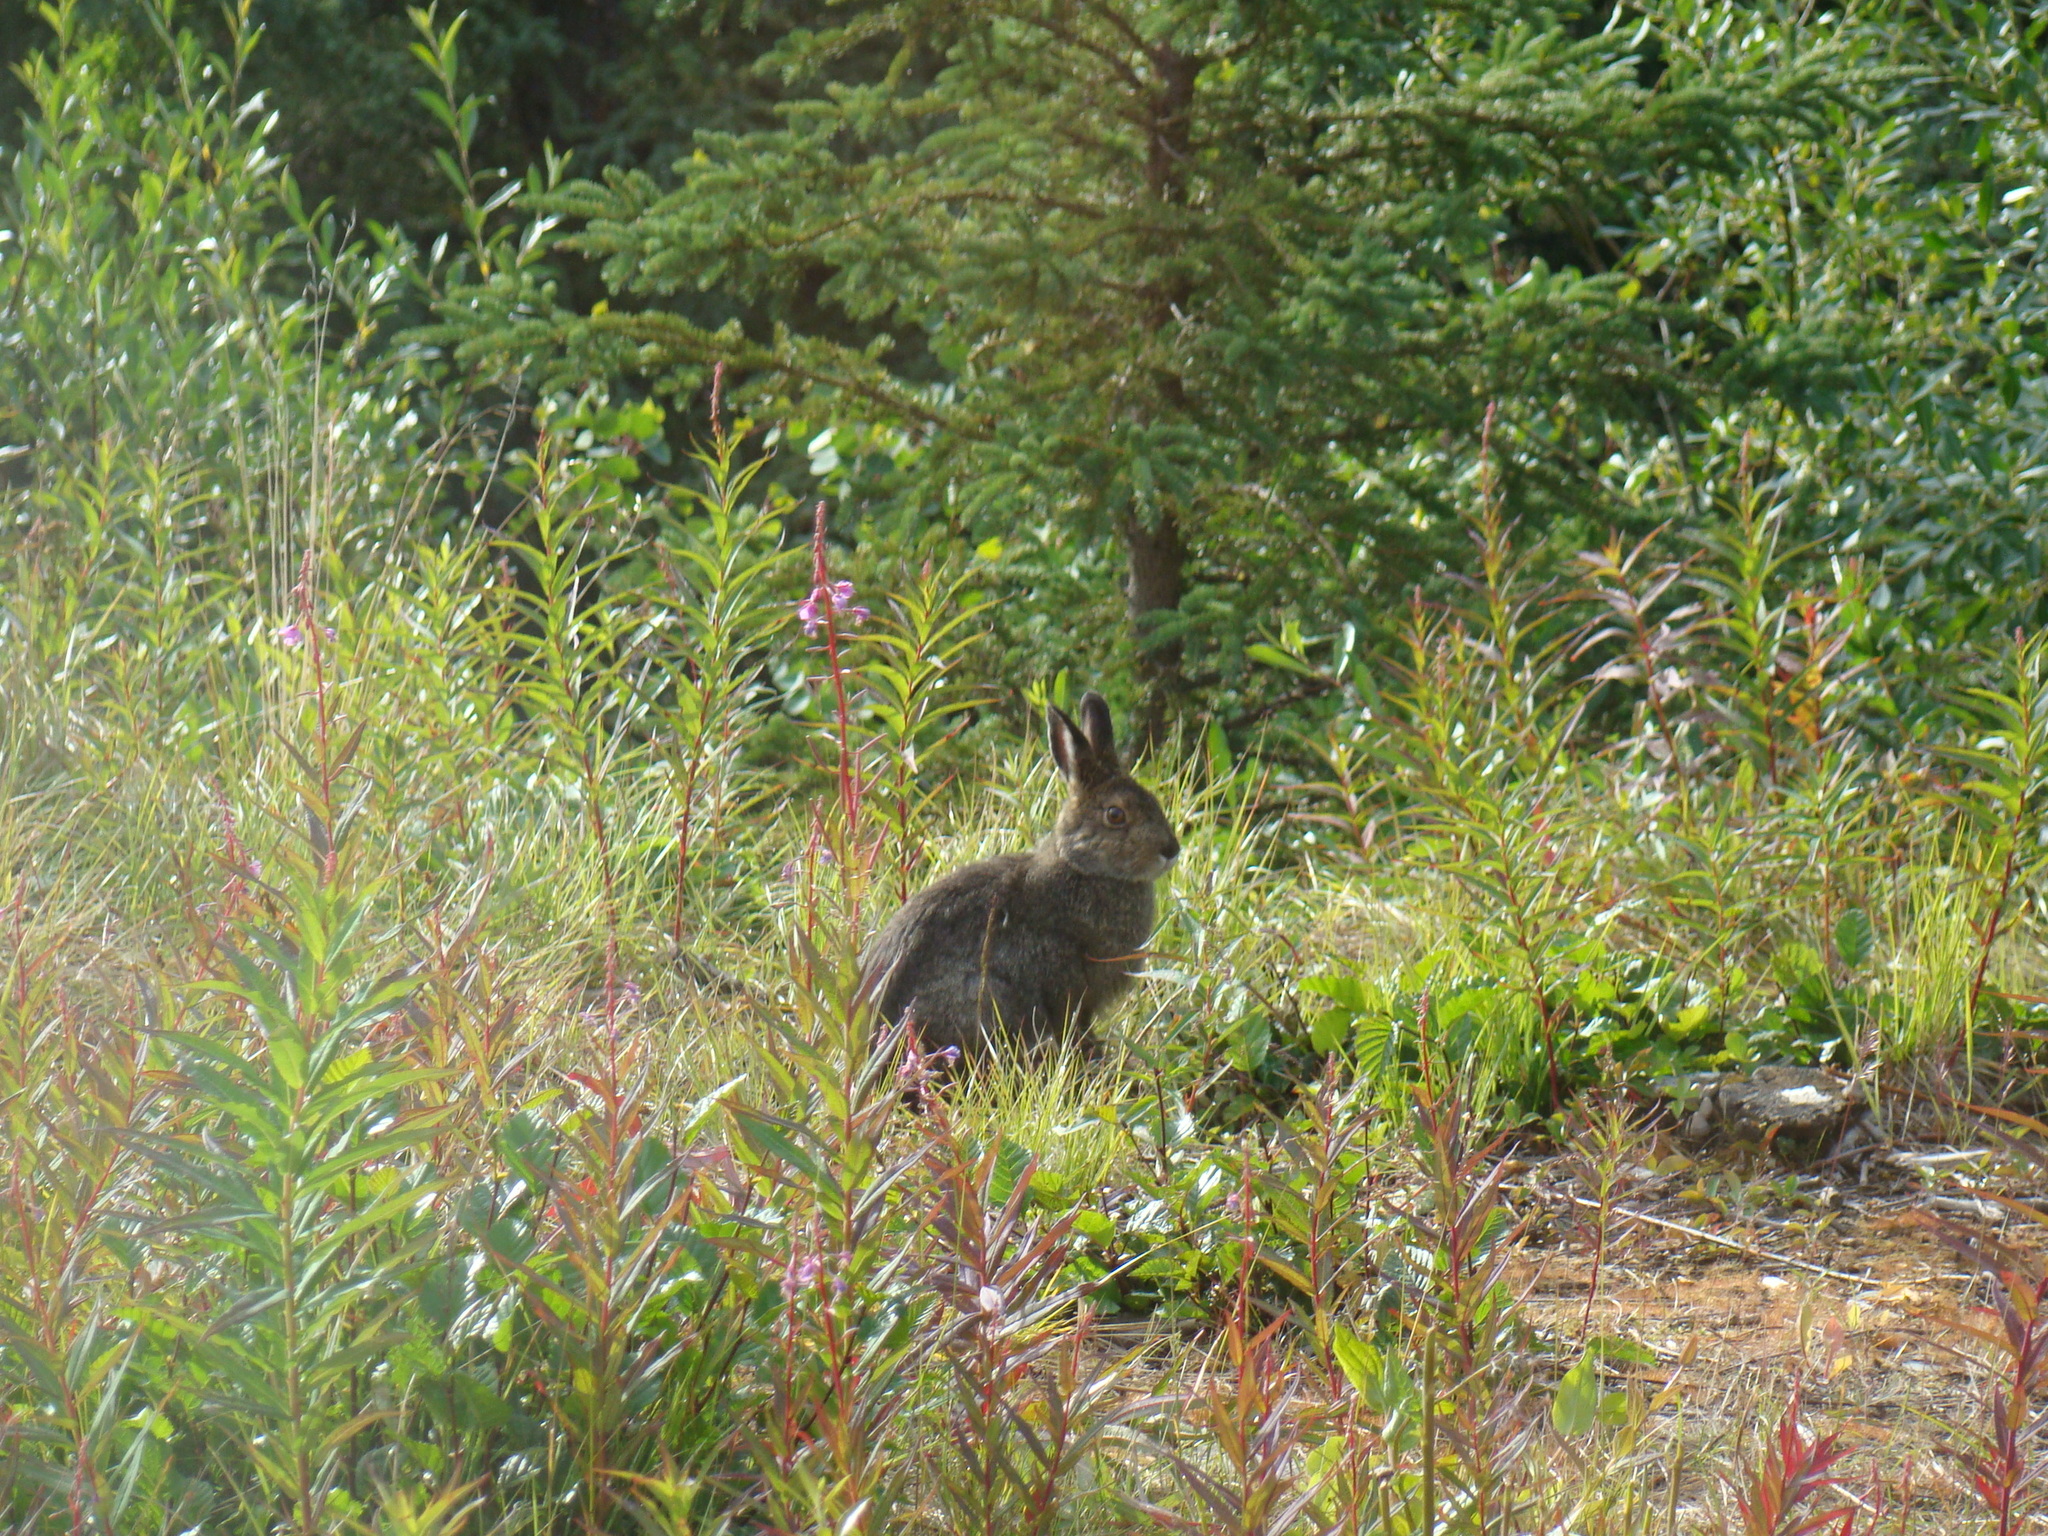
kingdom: Animalia
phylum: Chordata
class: Mammalia
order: Lagomorpha
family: Leporidae
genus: Lepus
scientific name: Lepus americanus
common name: Snowshoe hare
